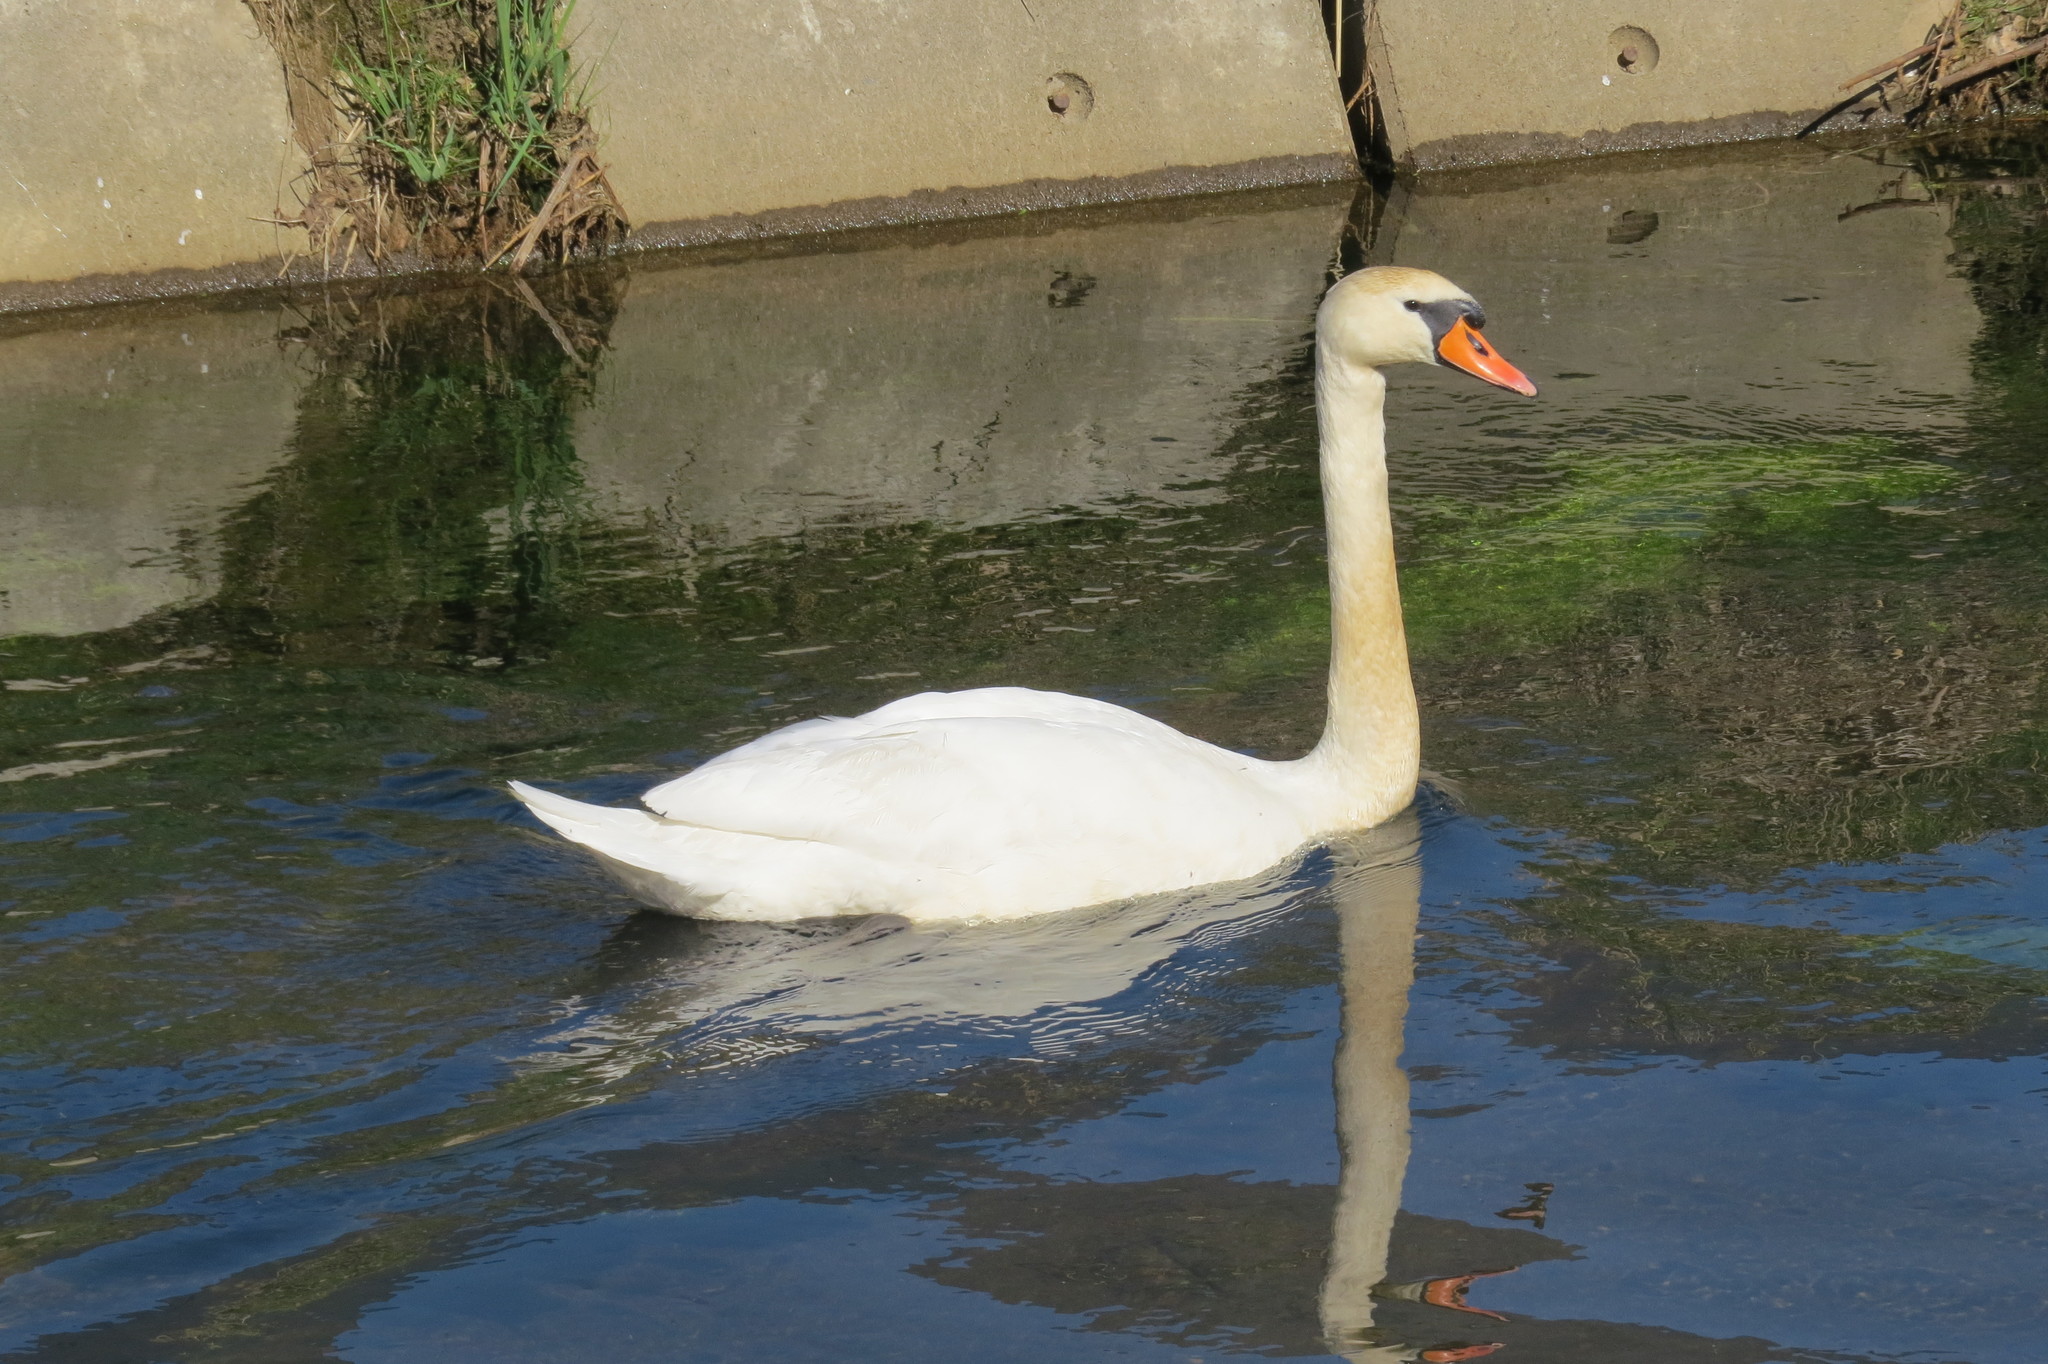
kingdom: Animalia
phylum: Chordata
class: Aves
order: Anseriformes
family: Anatidae
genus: Cygnus
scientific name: Cygnus olor
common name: Mute swan
